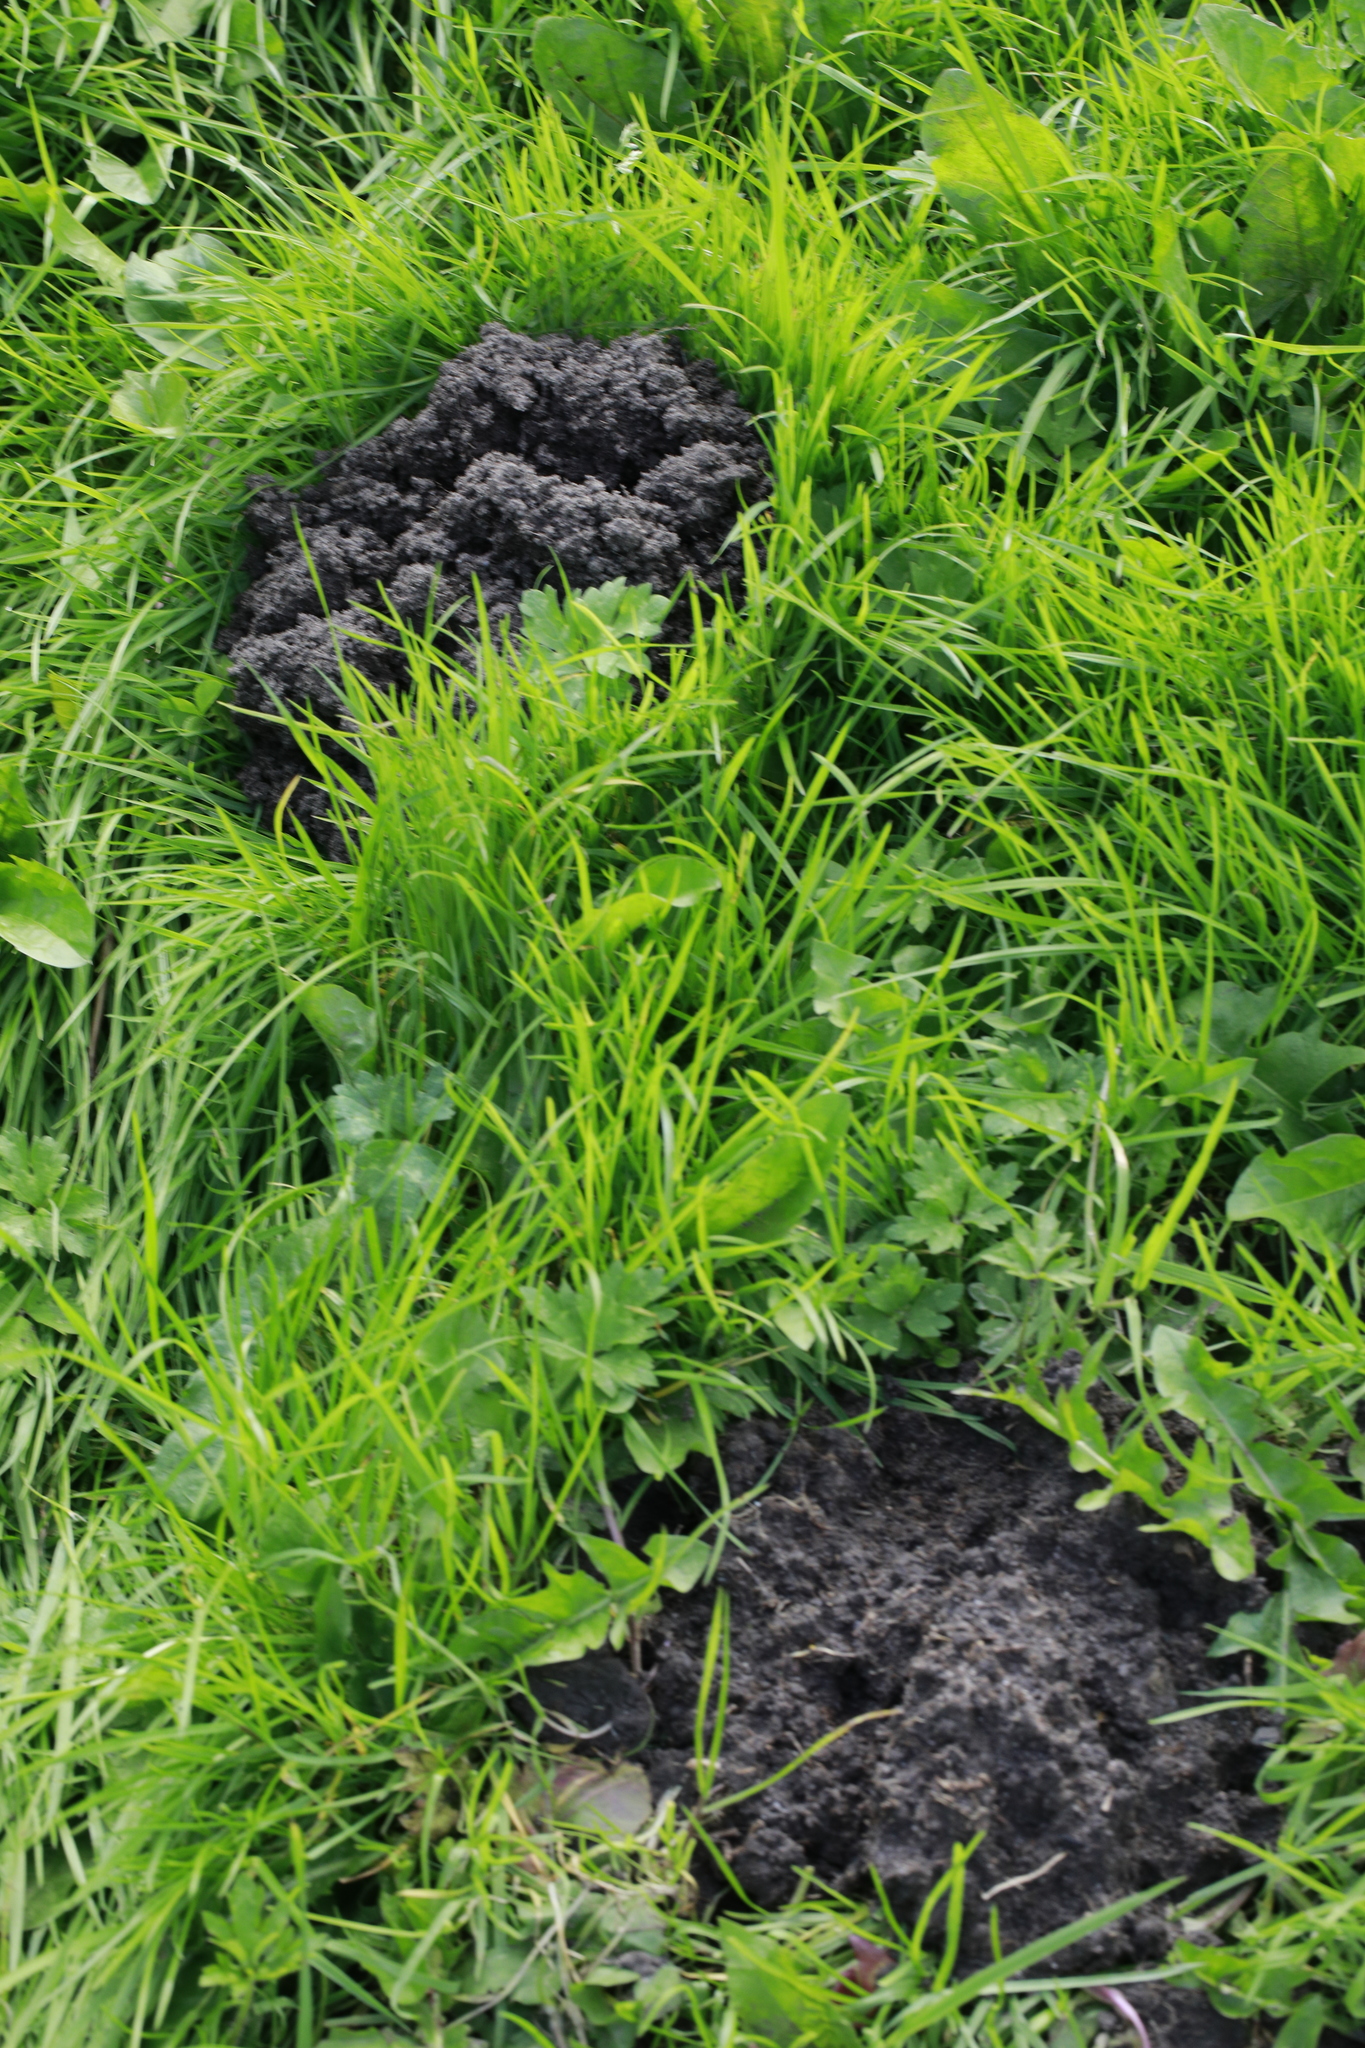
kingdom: Animalia
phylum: Chordata
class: Mammalia
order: Soricomorpha
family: Talpidae
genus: Talpa
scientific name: Talpa europaea
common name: European mole
